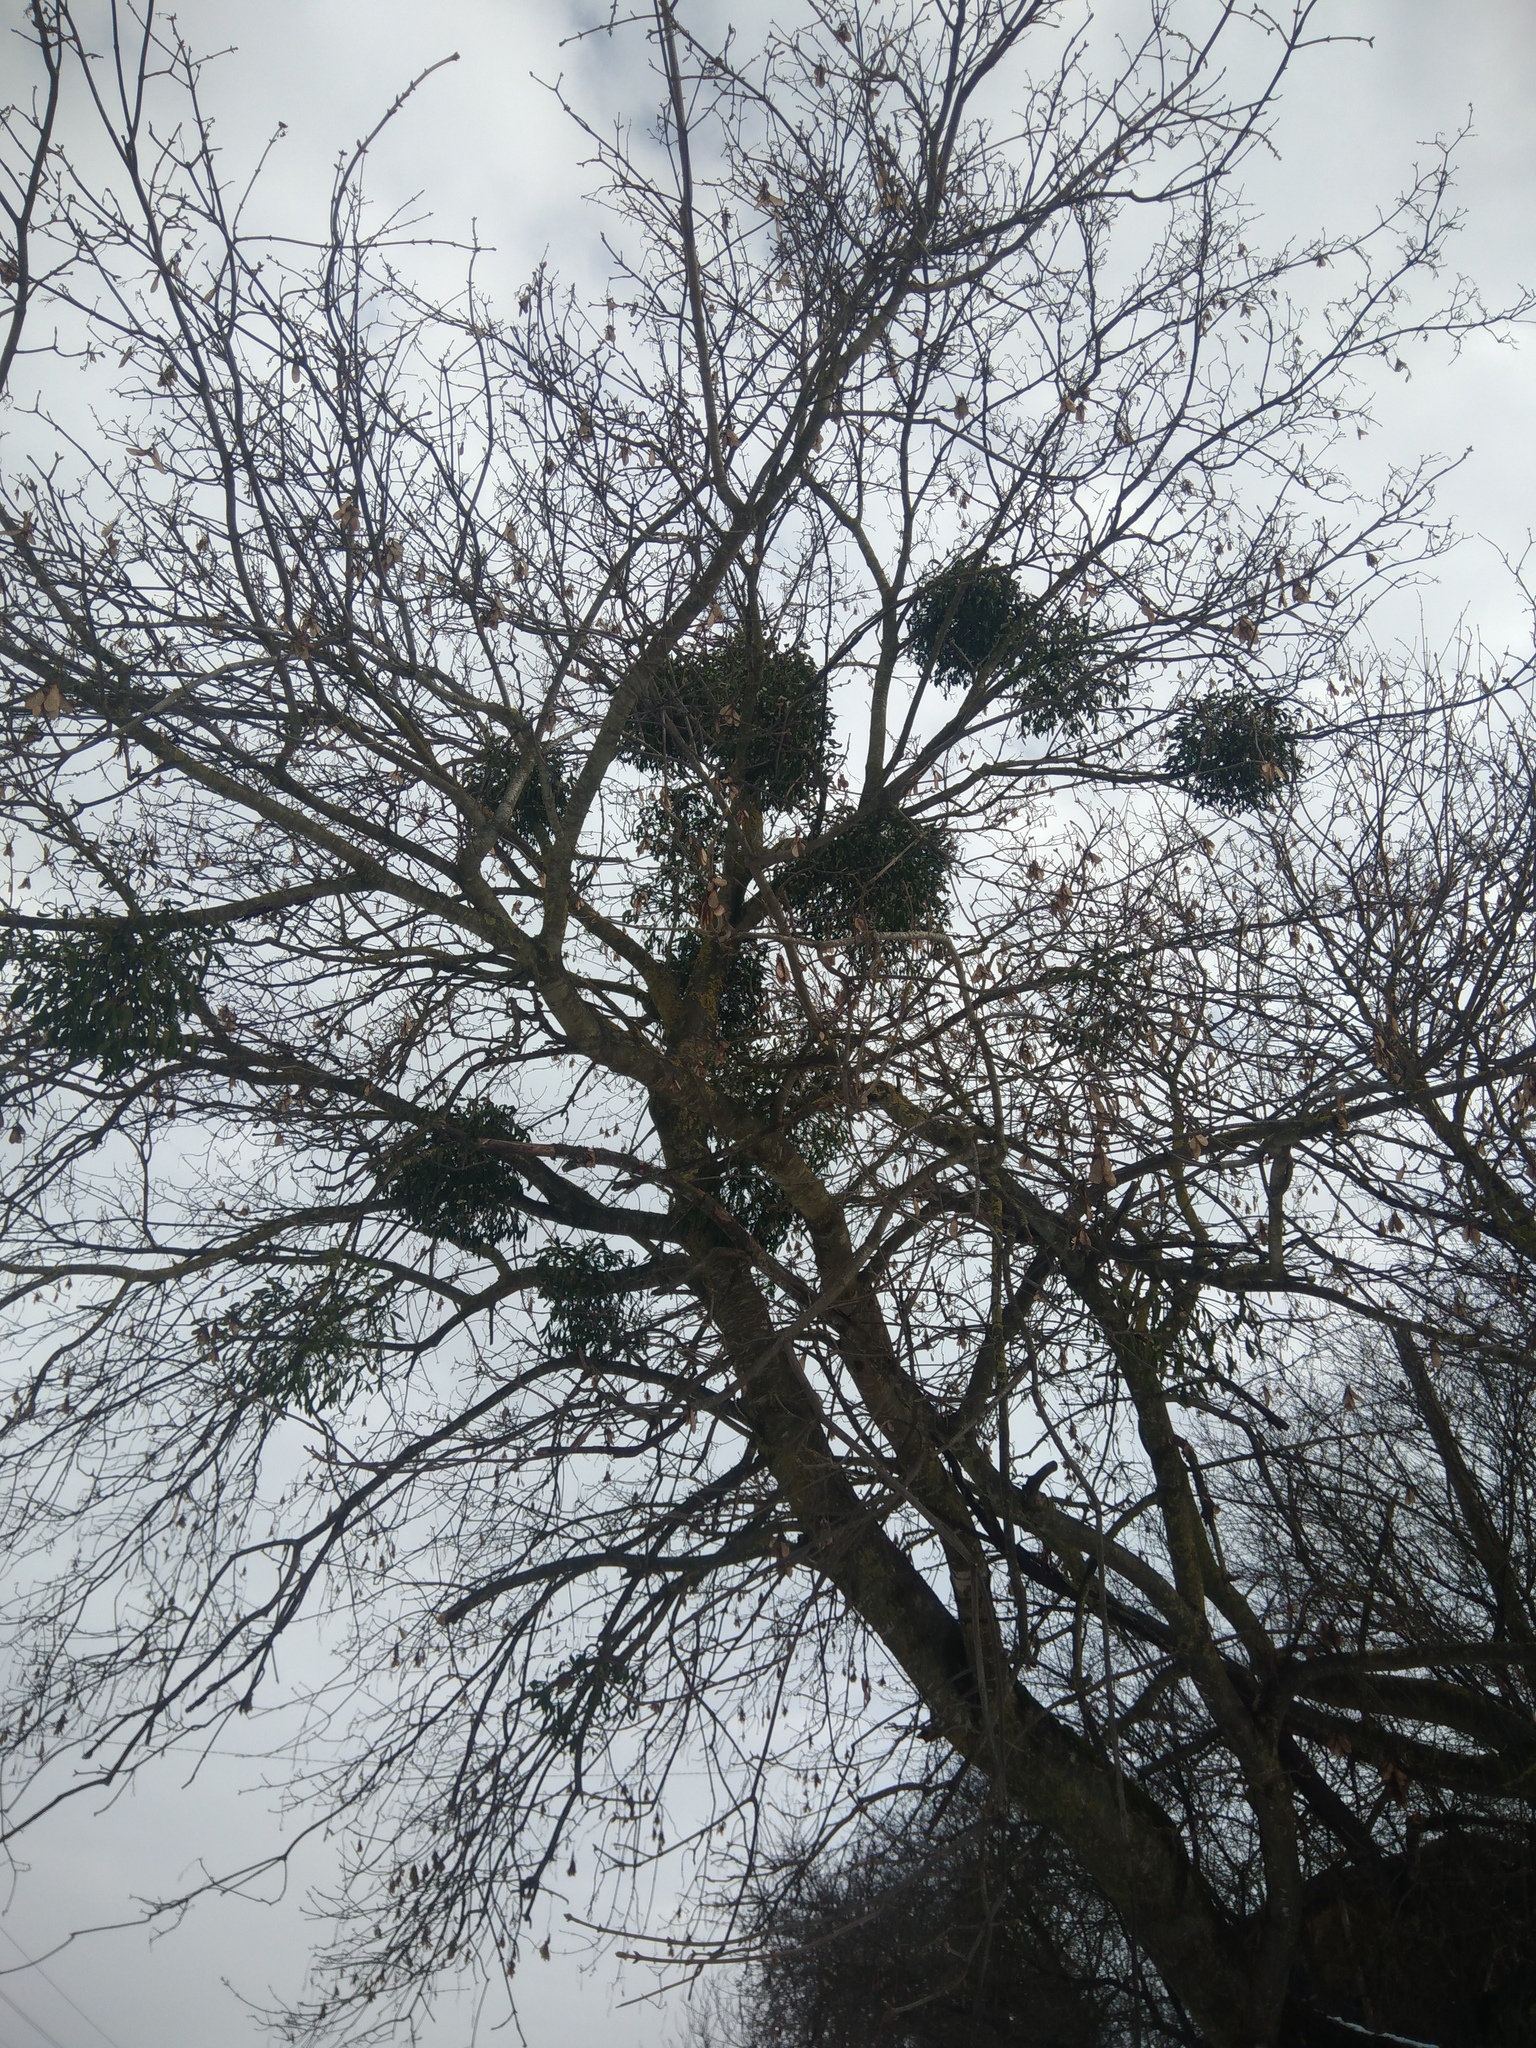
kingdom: Plantae
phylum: Tracheophyta
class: Magnoliopsida
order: Santalales
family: Viscaceae
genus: Viscum
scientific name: Viscum album
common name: Mistletoe
